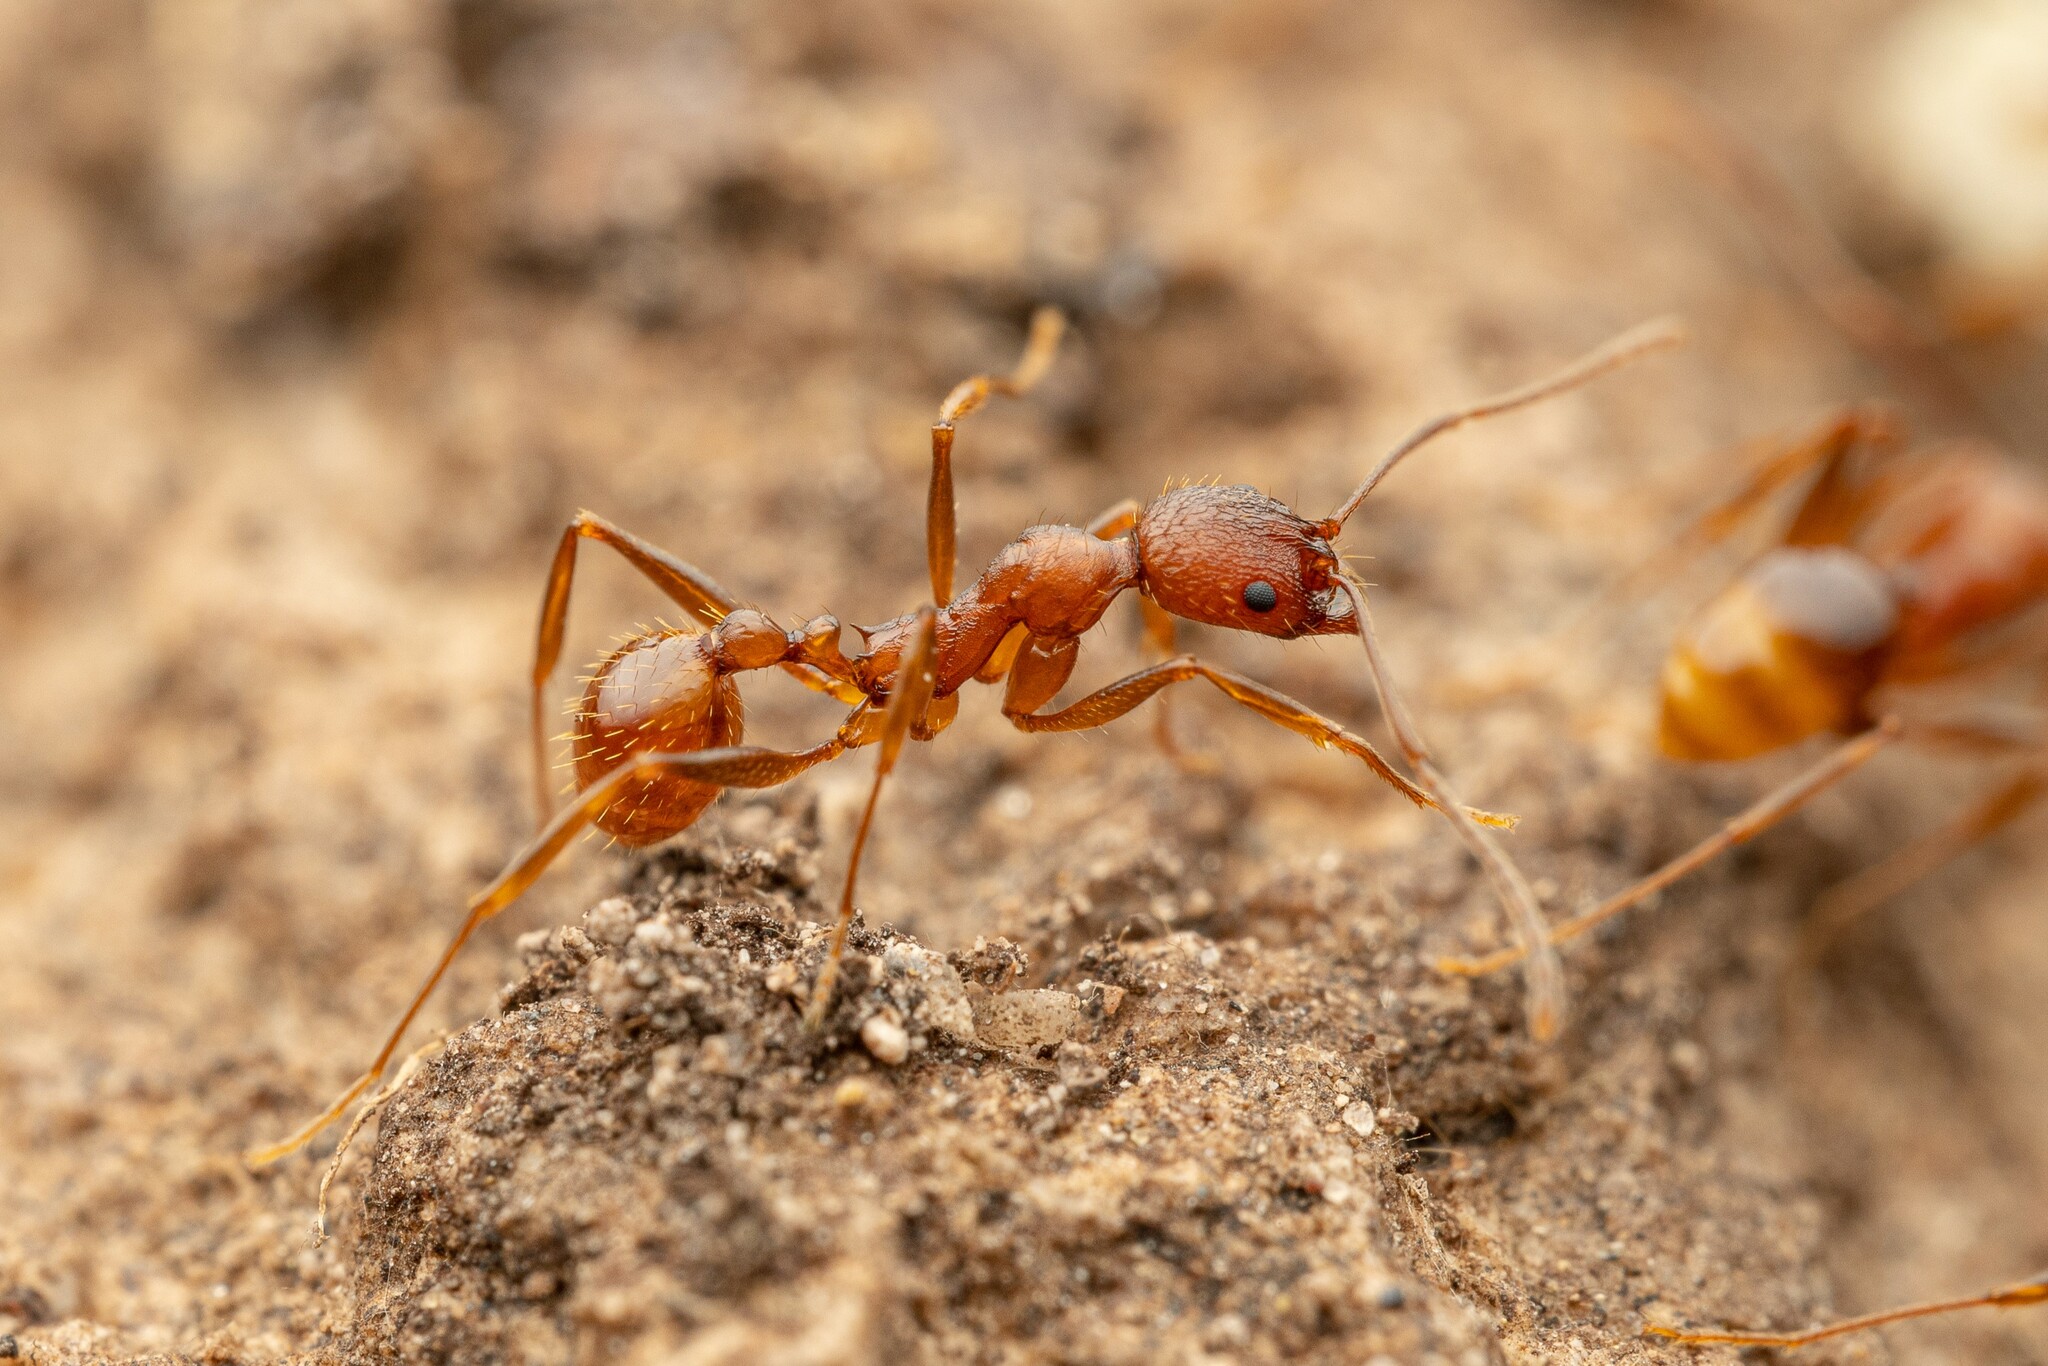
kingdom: Animalia
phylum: Arthropoda
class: Insecta
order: Hymenoptera
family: Formicidae
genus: Aphaenogaster
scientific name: Aphaenogaster texana
